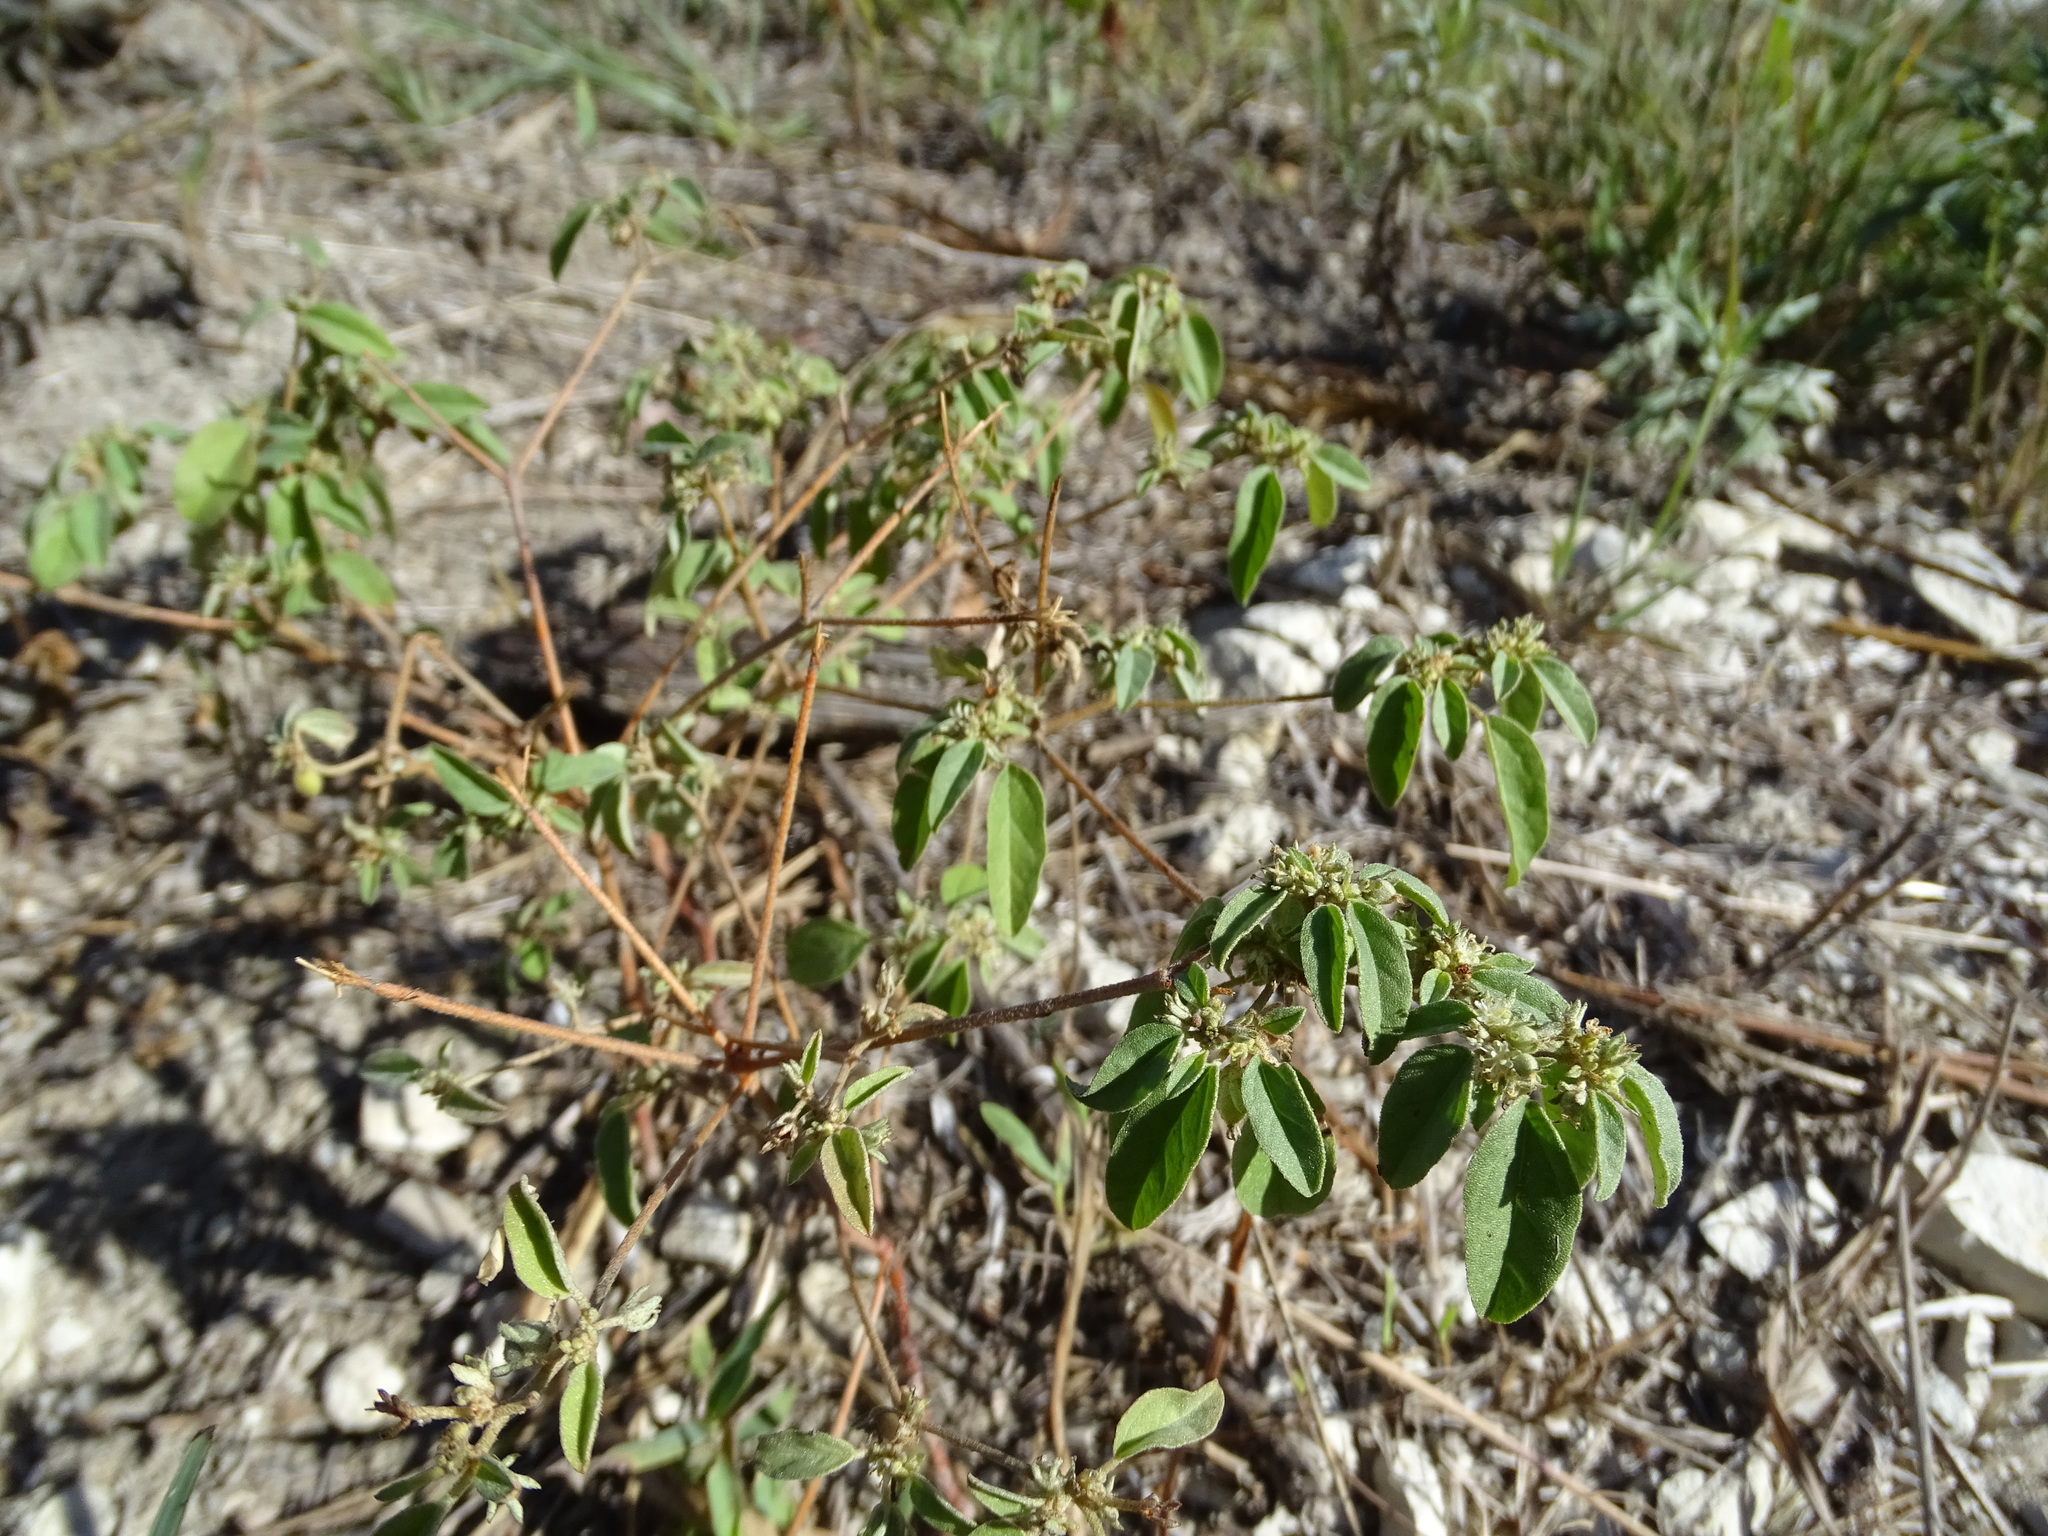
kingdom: Plantae
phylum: Tracheophyta
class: Magnoliopsida
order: Malpighiales
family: Euphorbiaceae
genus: Croton
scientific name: Croton monanthogynus
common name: One-seed croton
